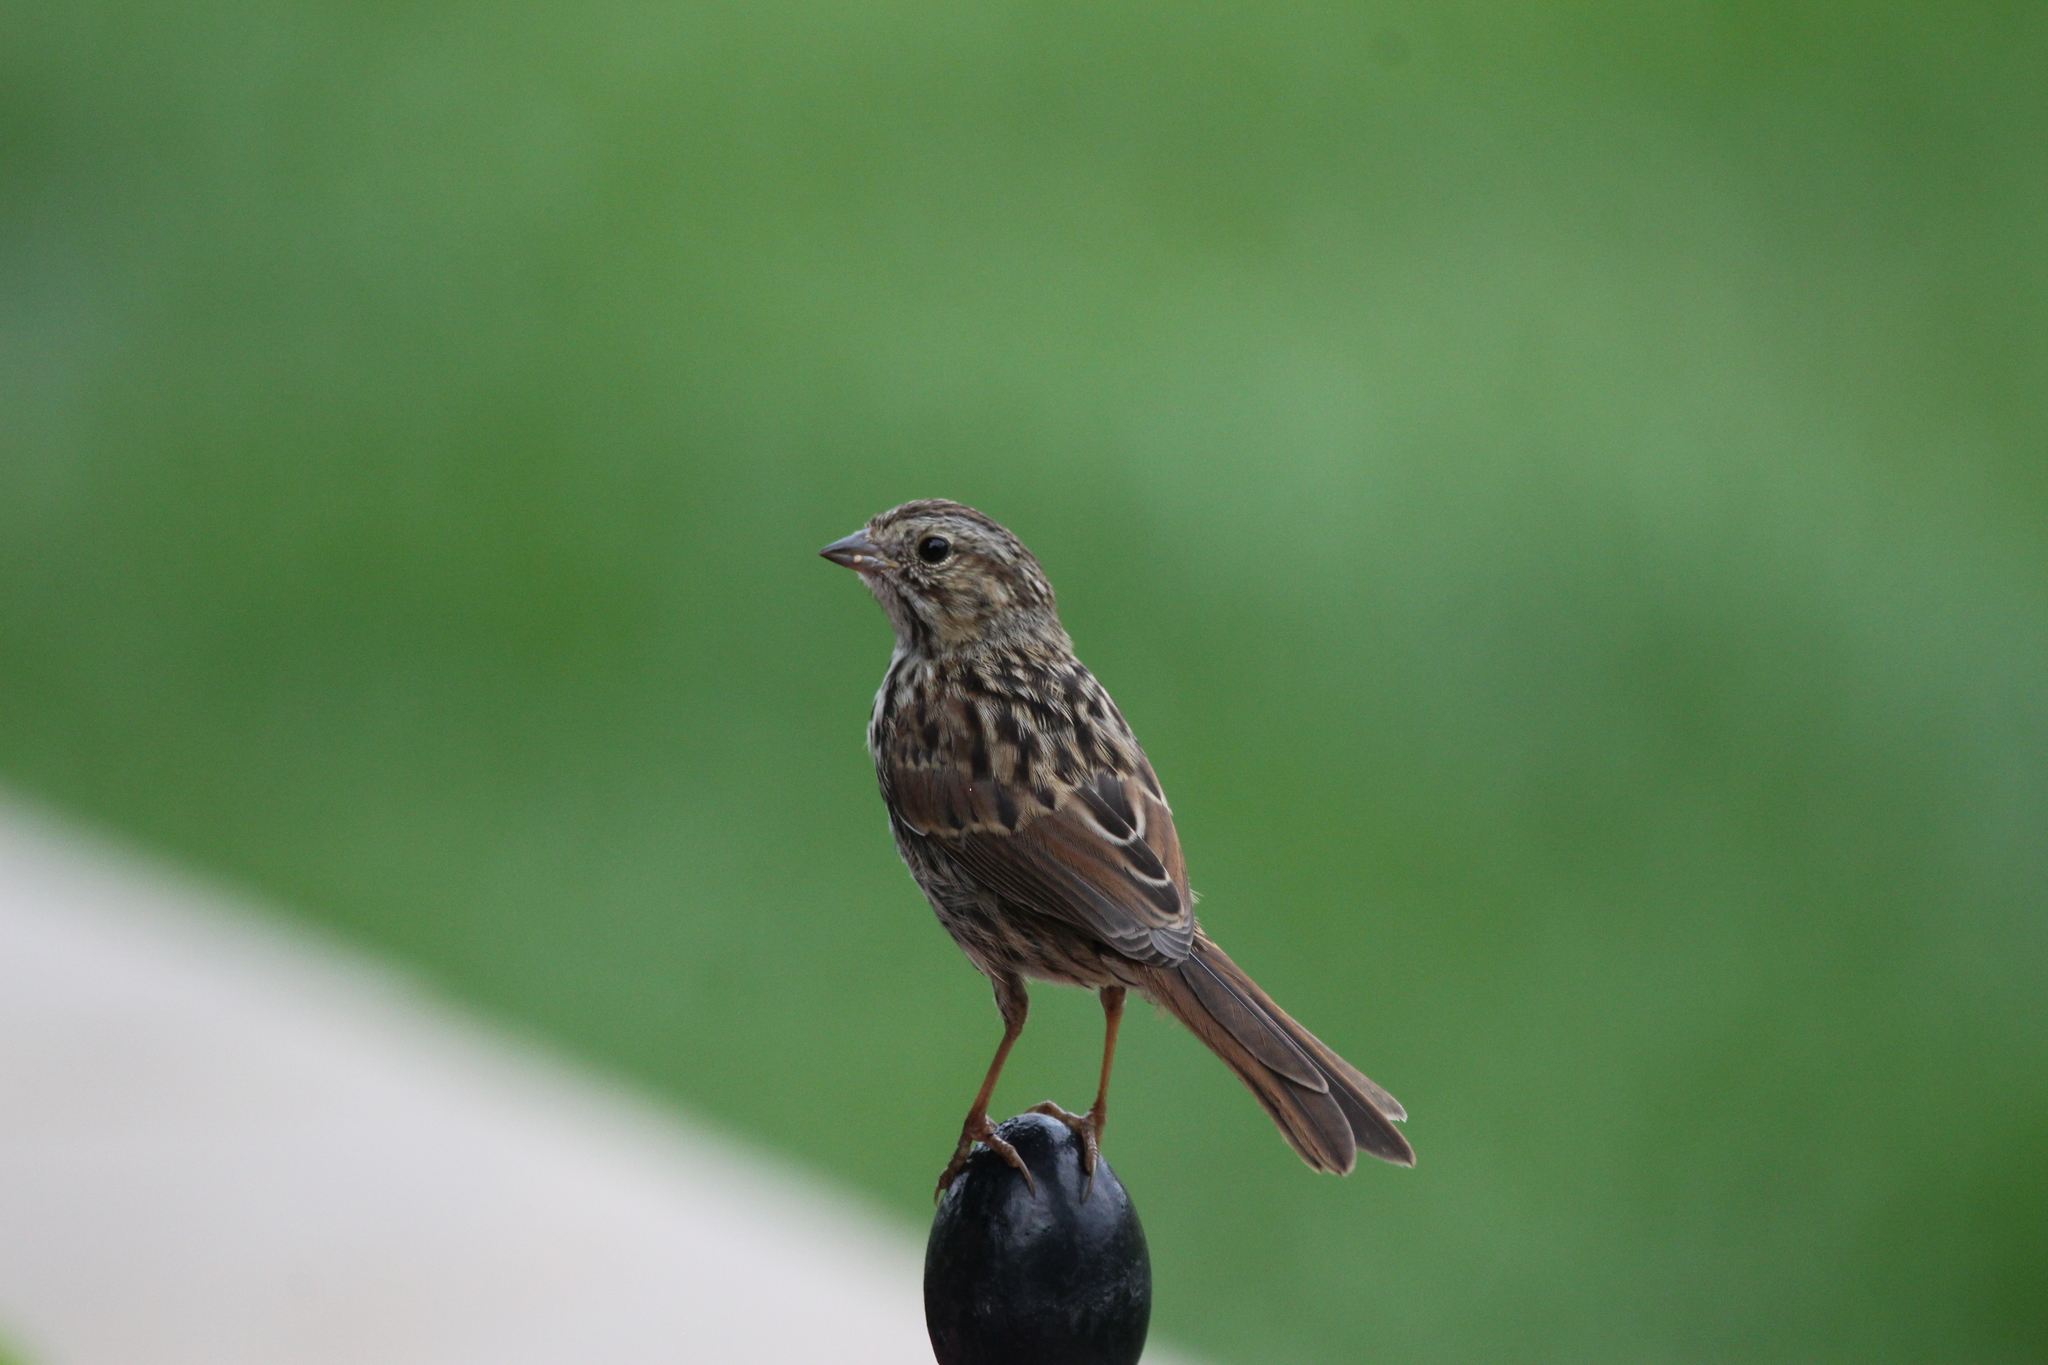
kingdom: Animalia
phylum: Chordata
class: Aves
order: Passeriformes
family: Passerellidae
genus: Melospiza
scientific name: Melospiza melodia
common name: Song sparrow
